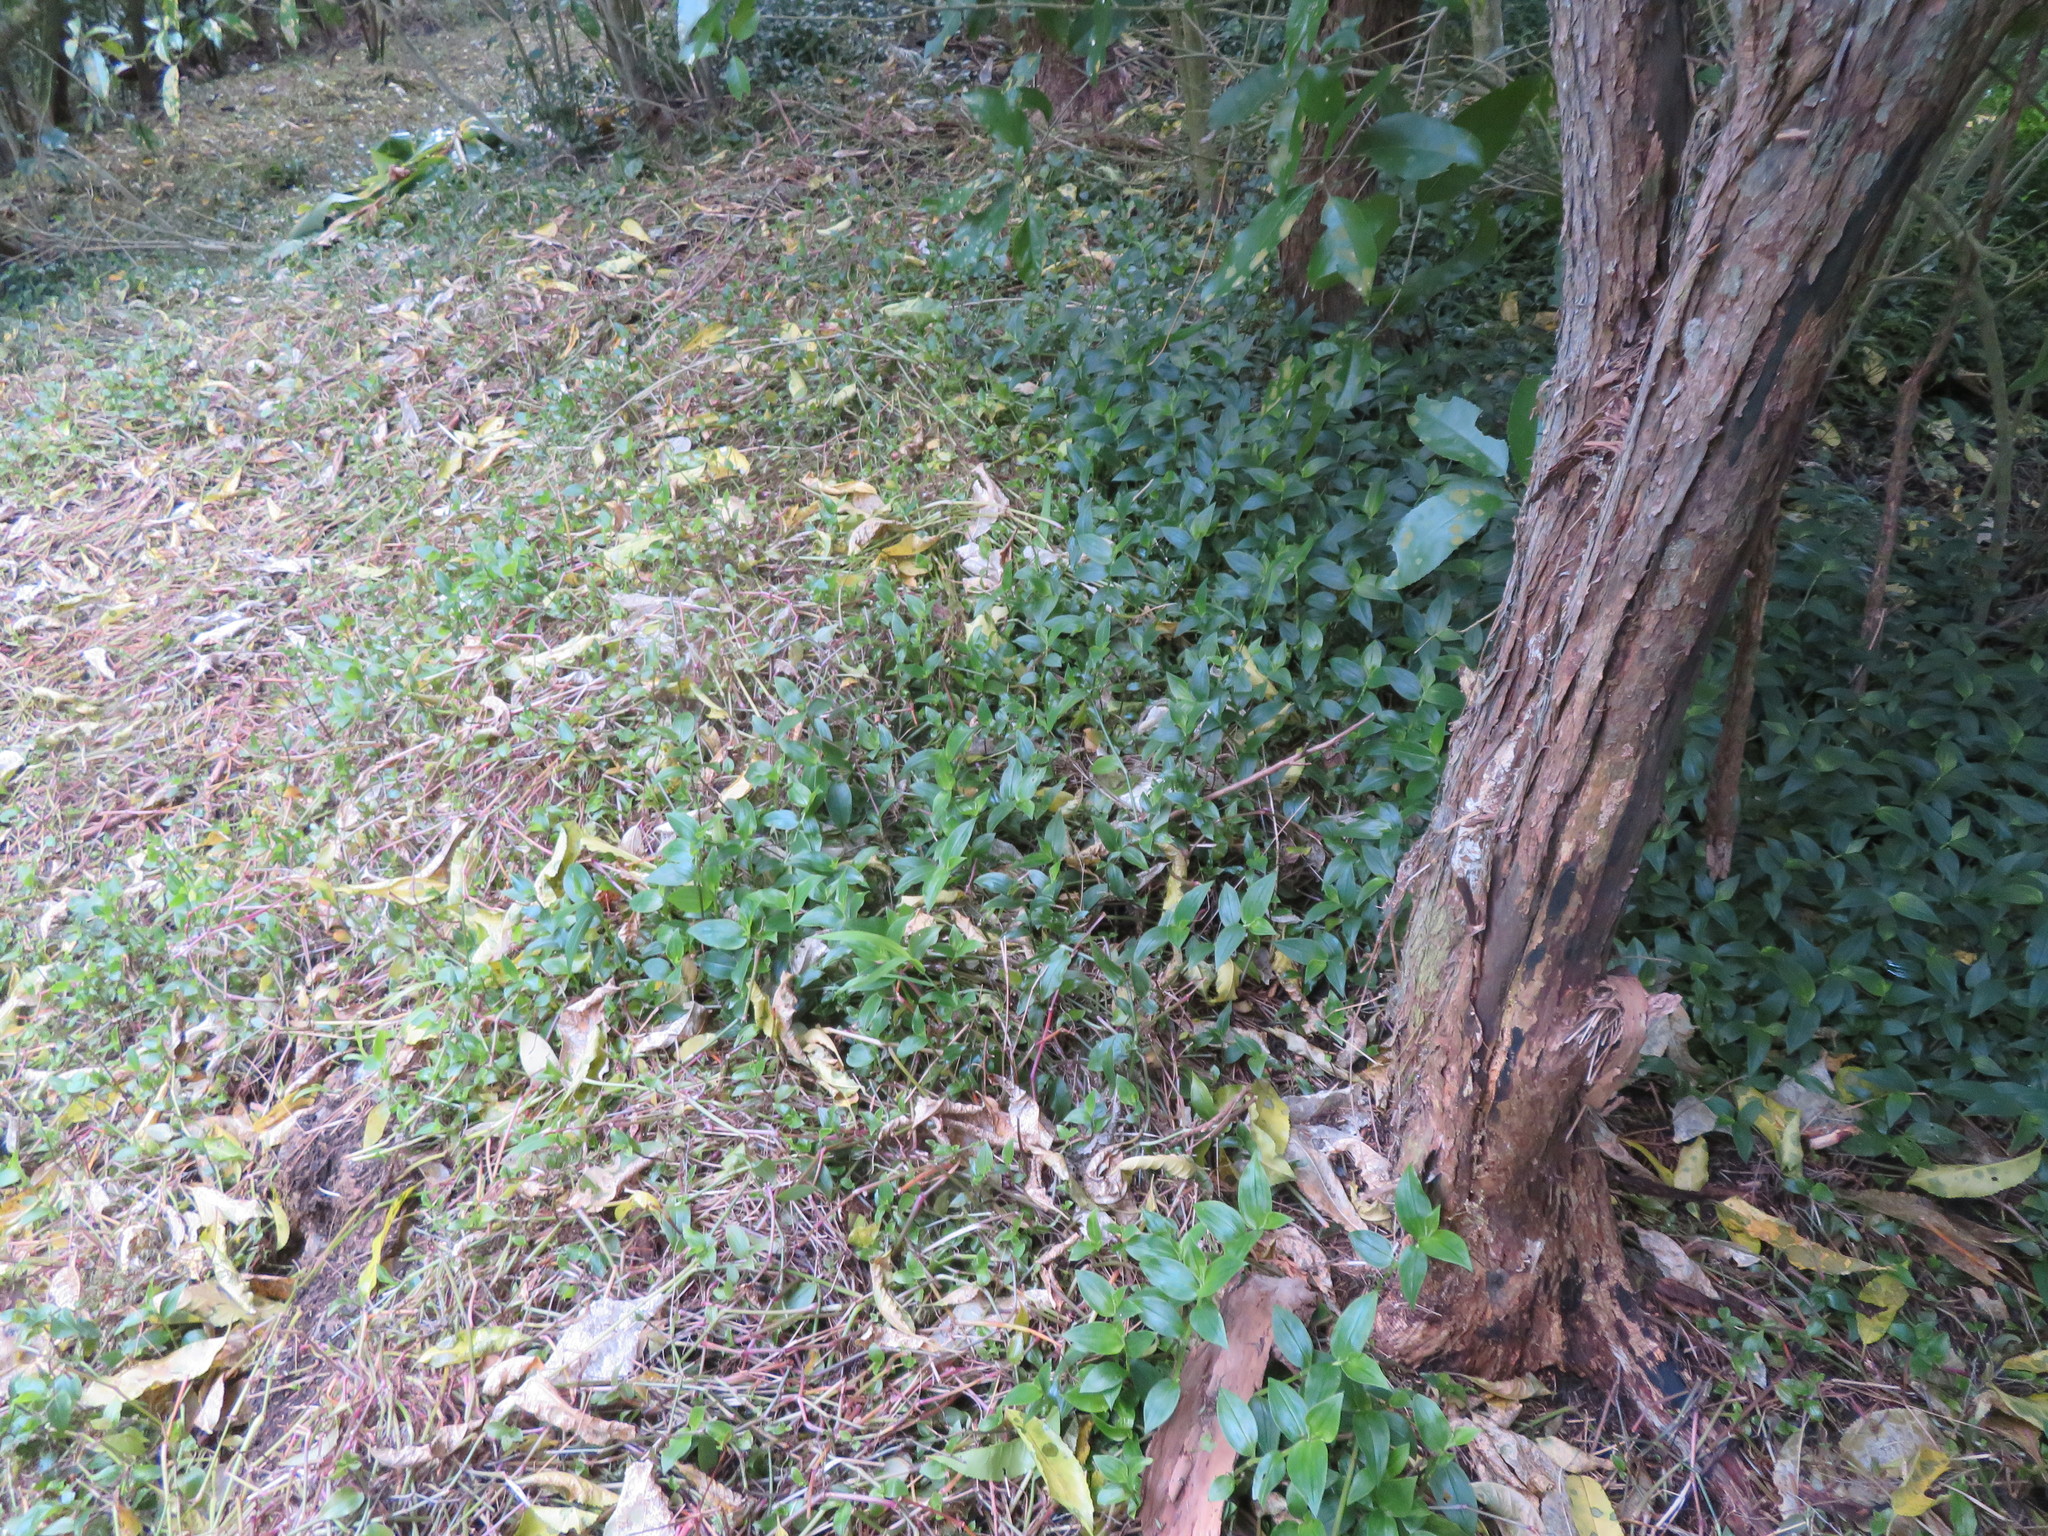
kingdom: Plantae
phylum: Tracheophyta
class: Liliopsida
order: Commelinales
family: Commelinaceae
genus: Tradescantia
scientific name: Tradescantia fluminensis
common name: Wandering-jew
